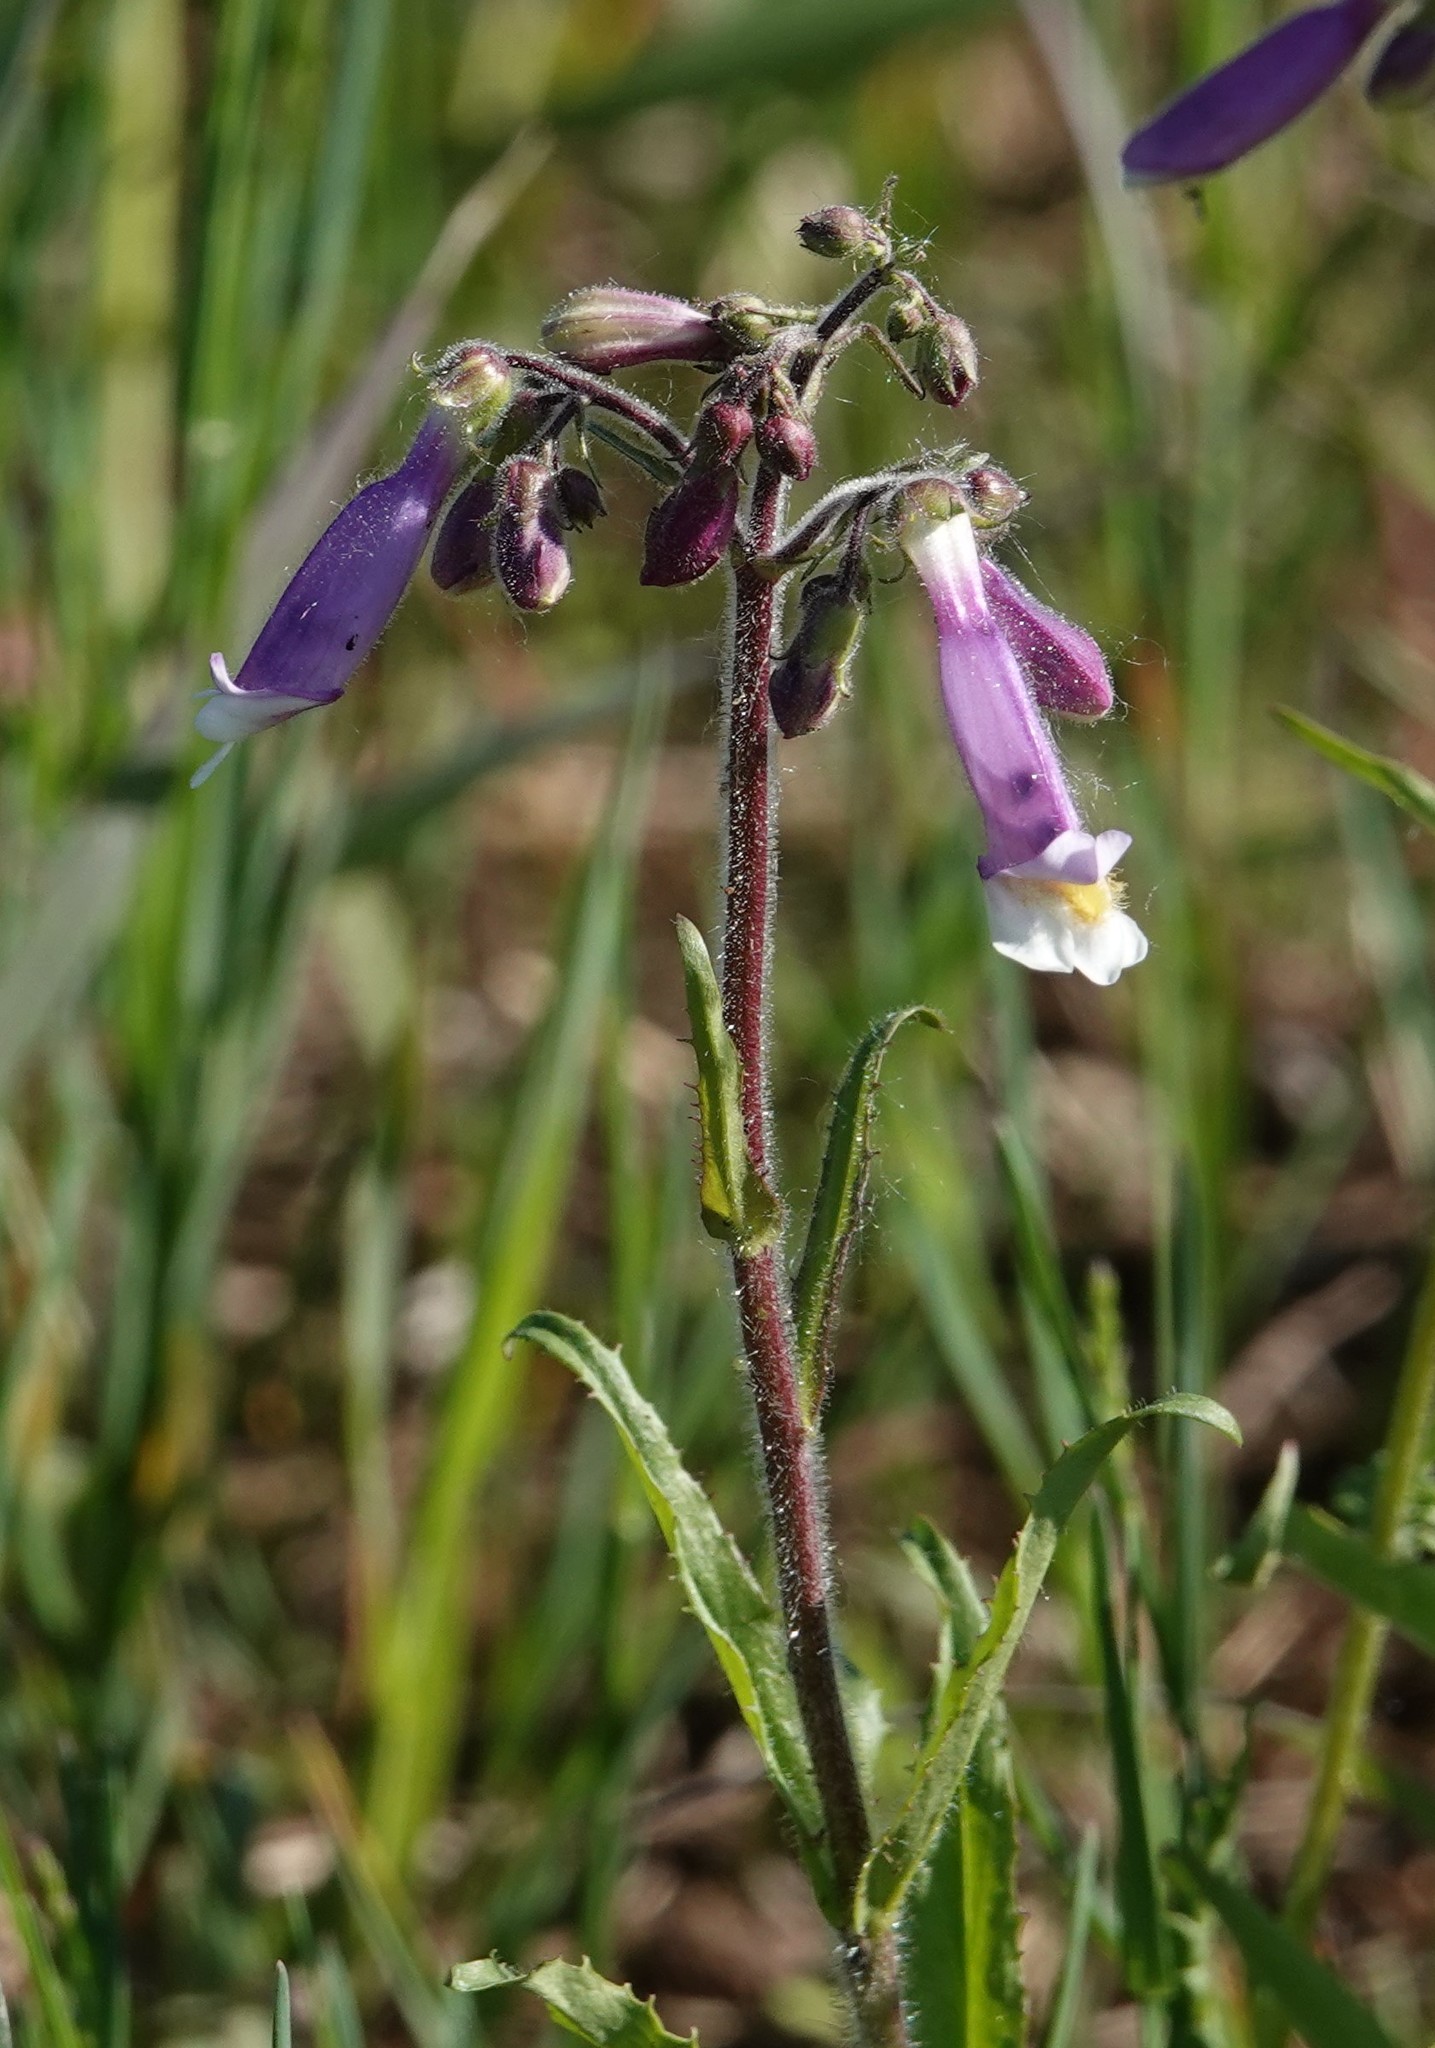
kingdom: Plantae
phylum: Tracheophyta
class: Magnoliopsida
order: Lamiales
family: Plantaginaceae
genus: Penstemon
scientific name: Penstemon hirsutus
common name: Hairy beardtongue
